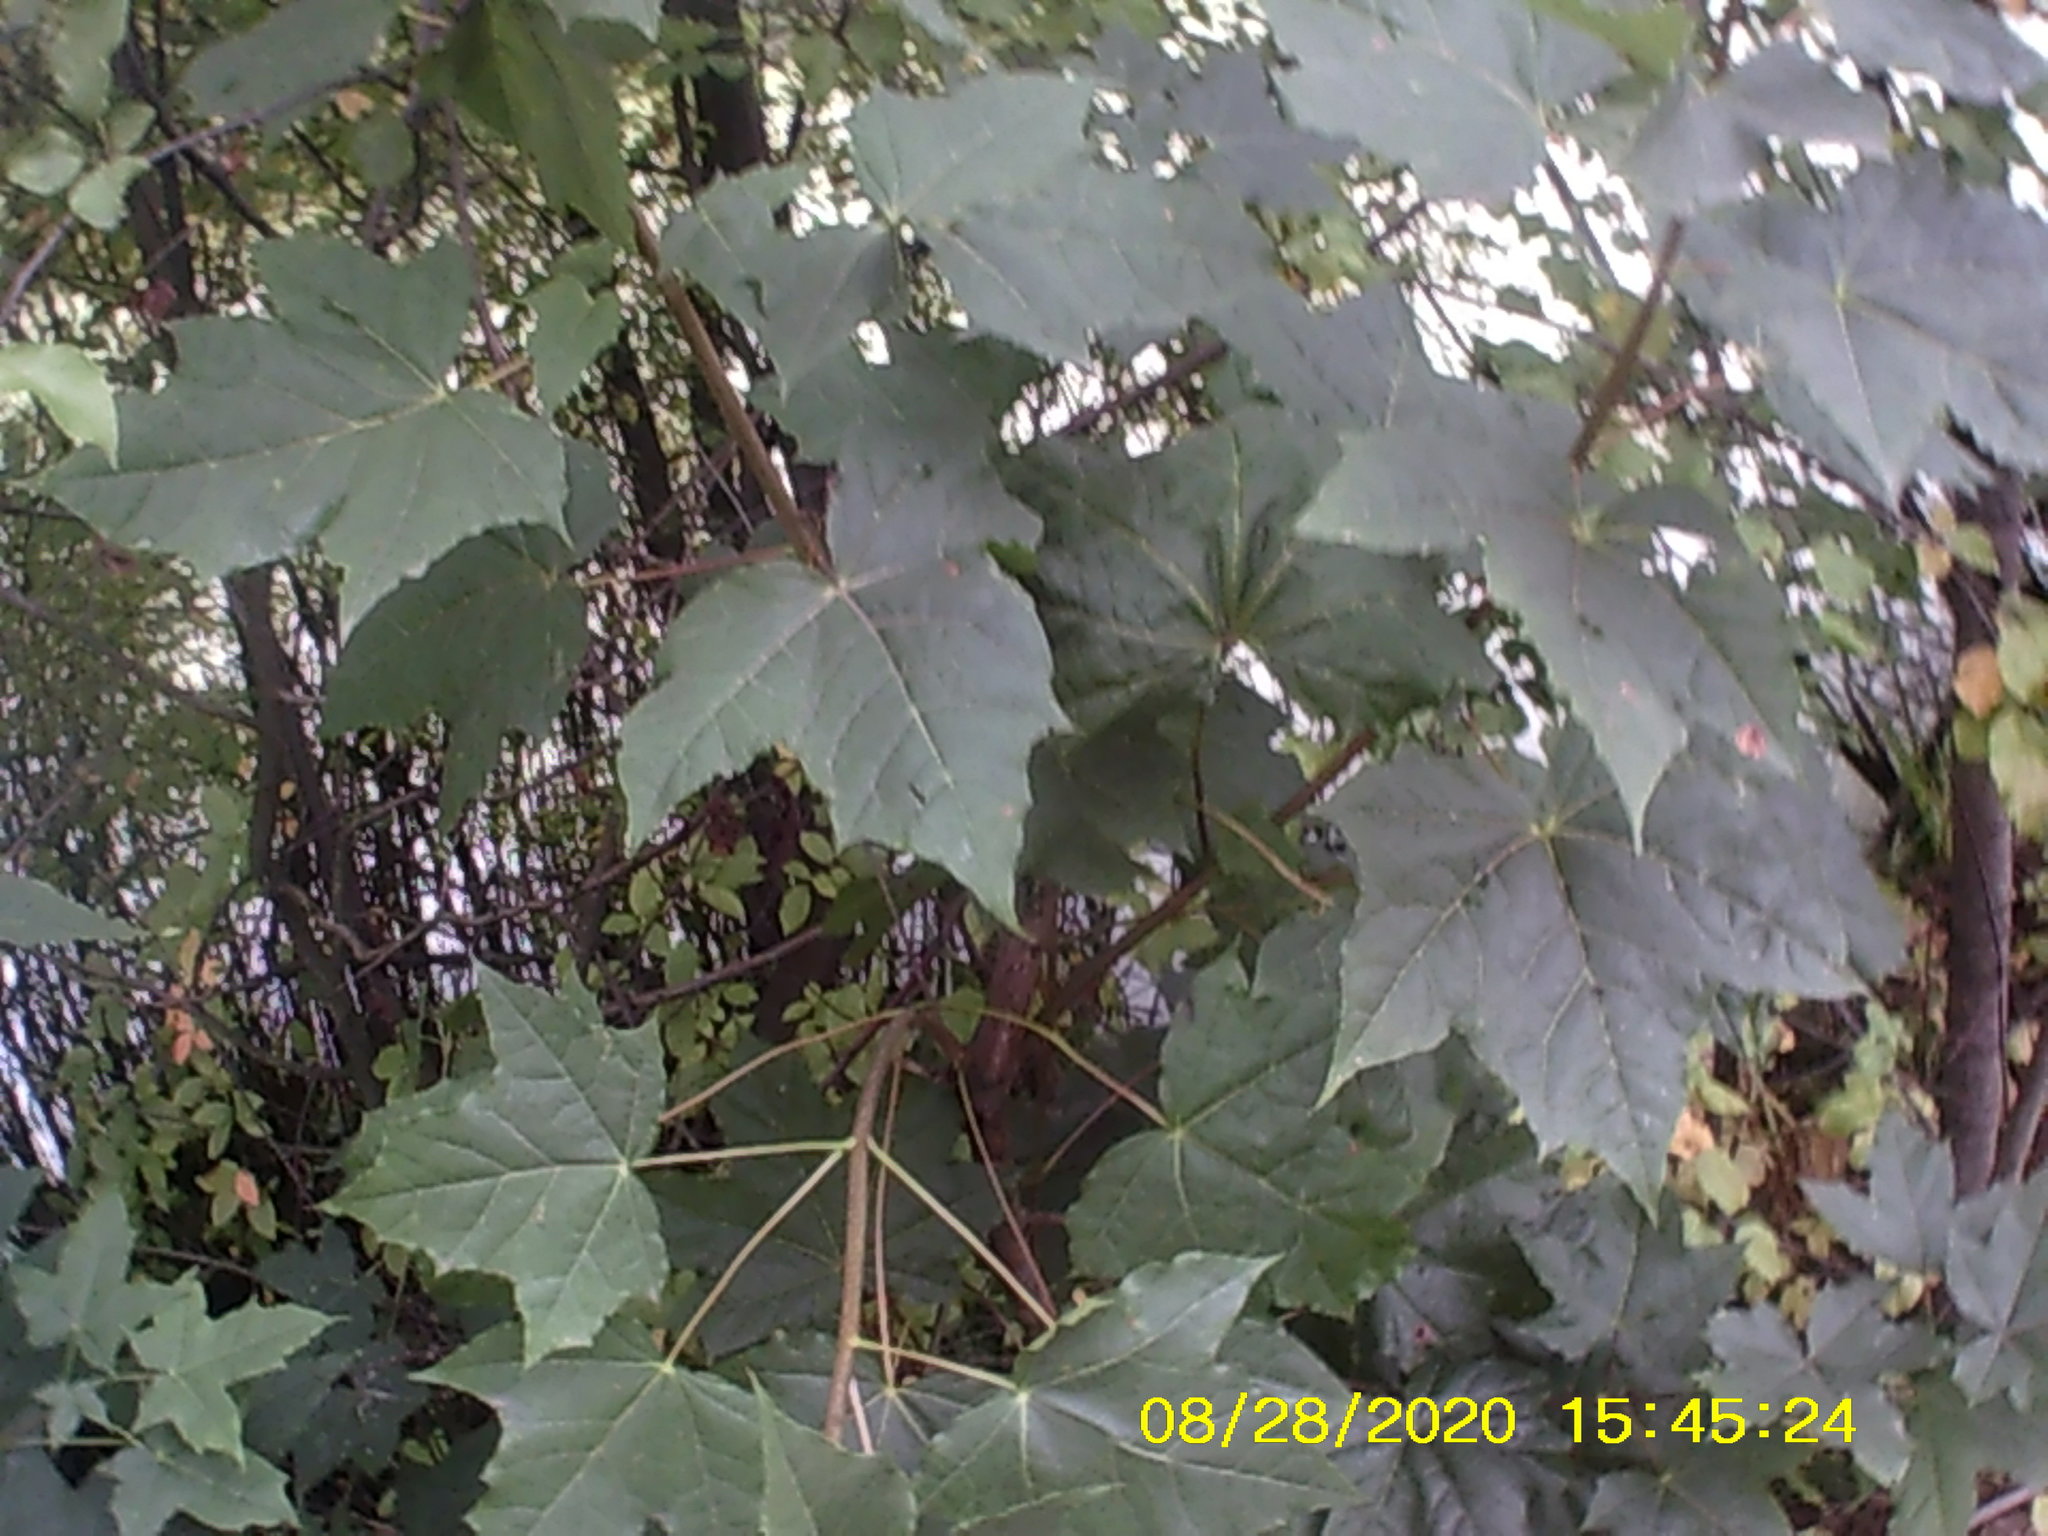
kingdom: Plantae
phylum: Tracheophyta
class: Magnoliopsida
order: Sapindales
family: Sapindaceae
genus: Acer
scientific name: Acer platanoides
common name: Norway maple
